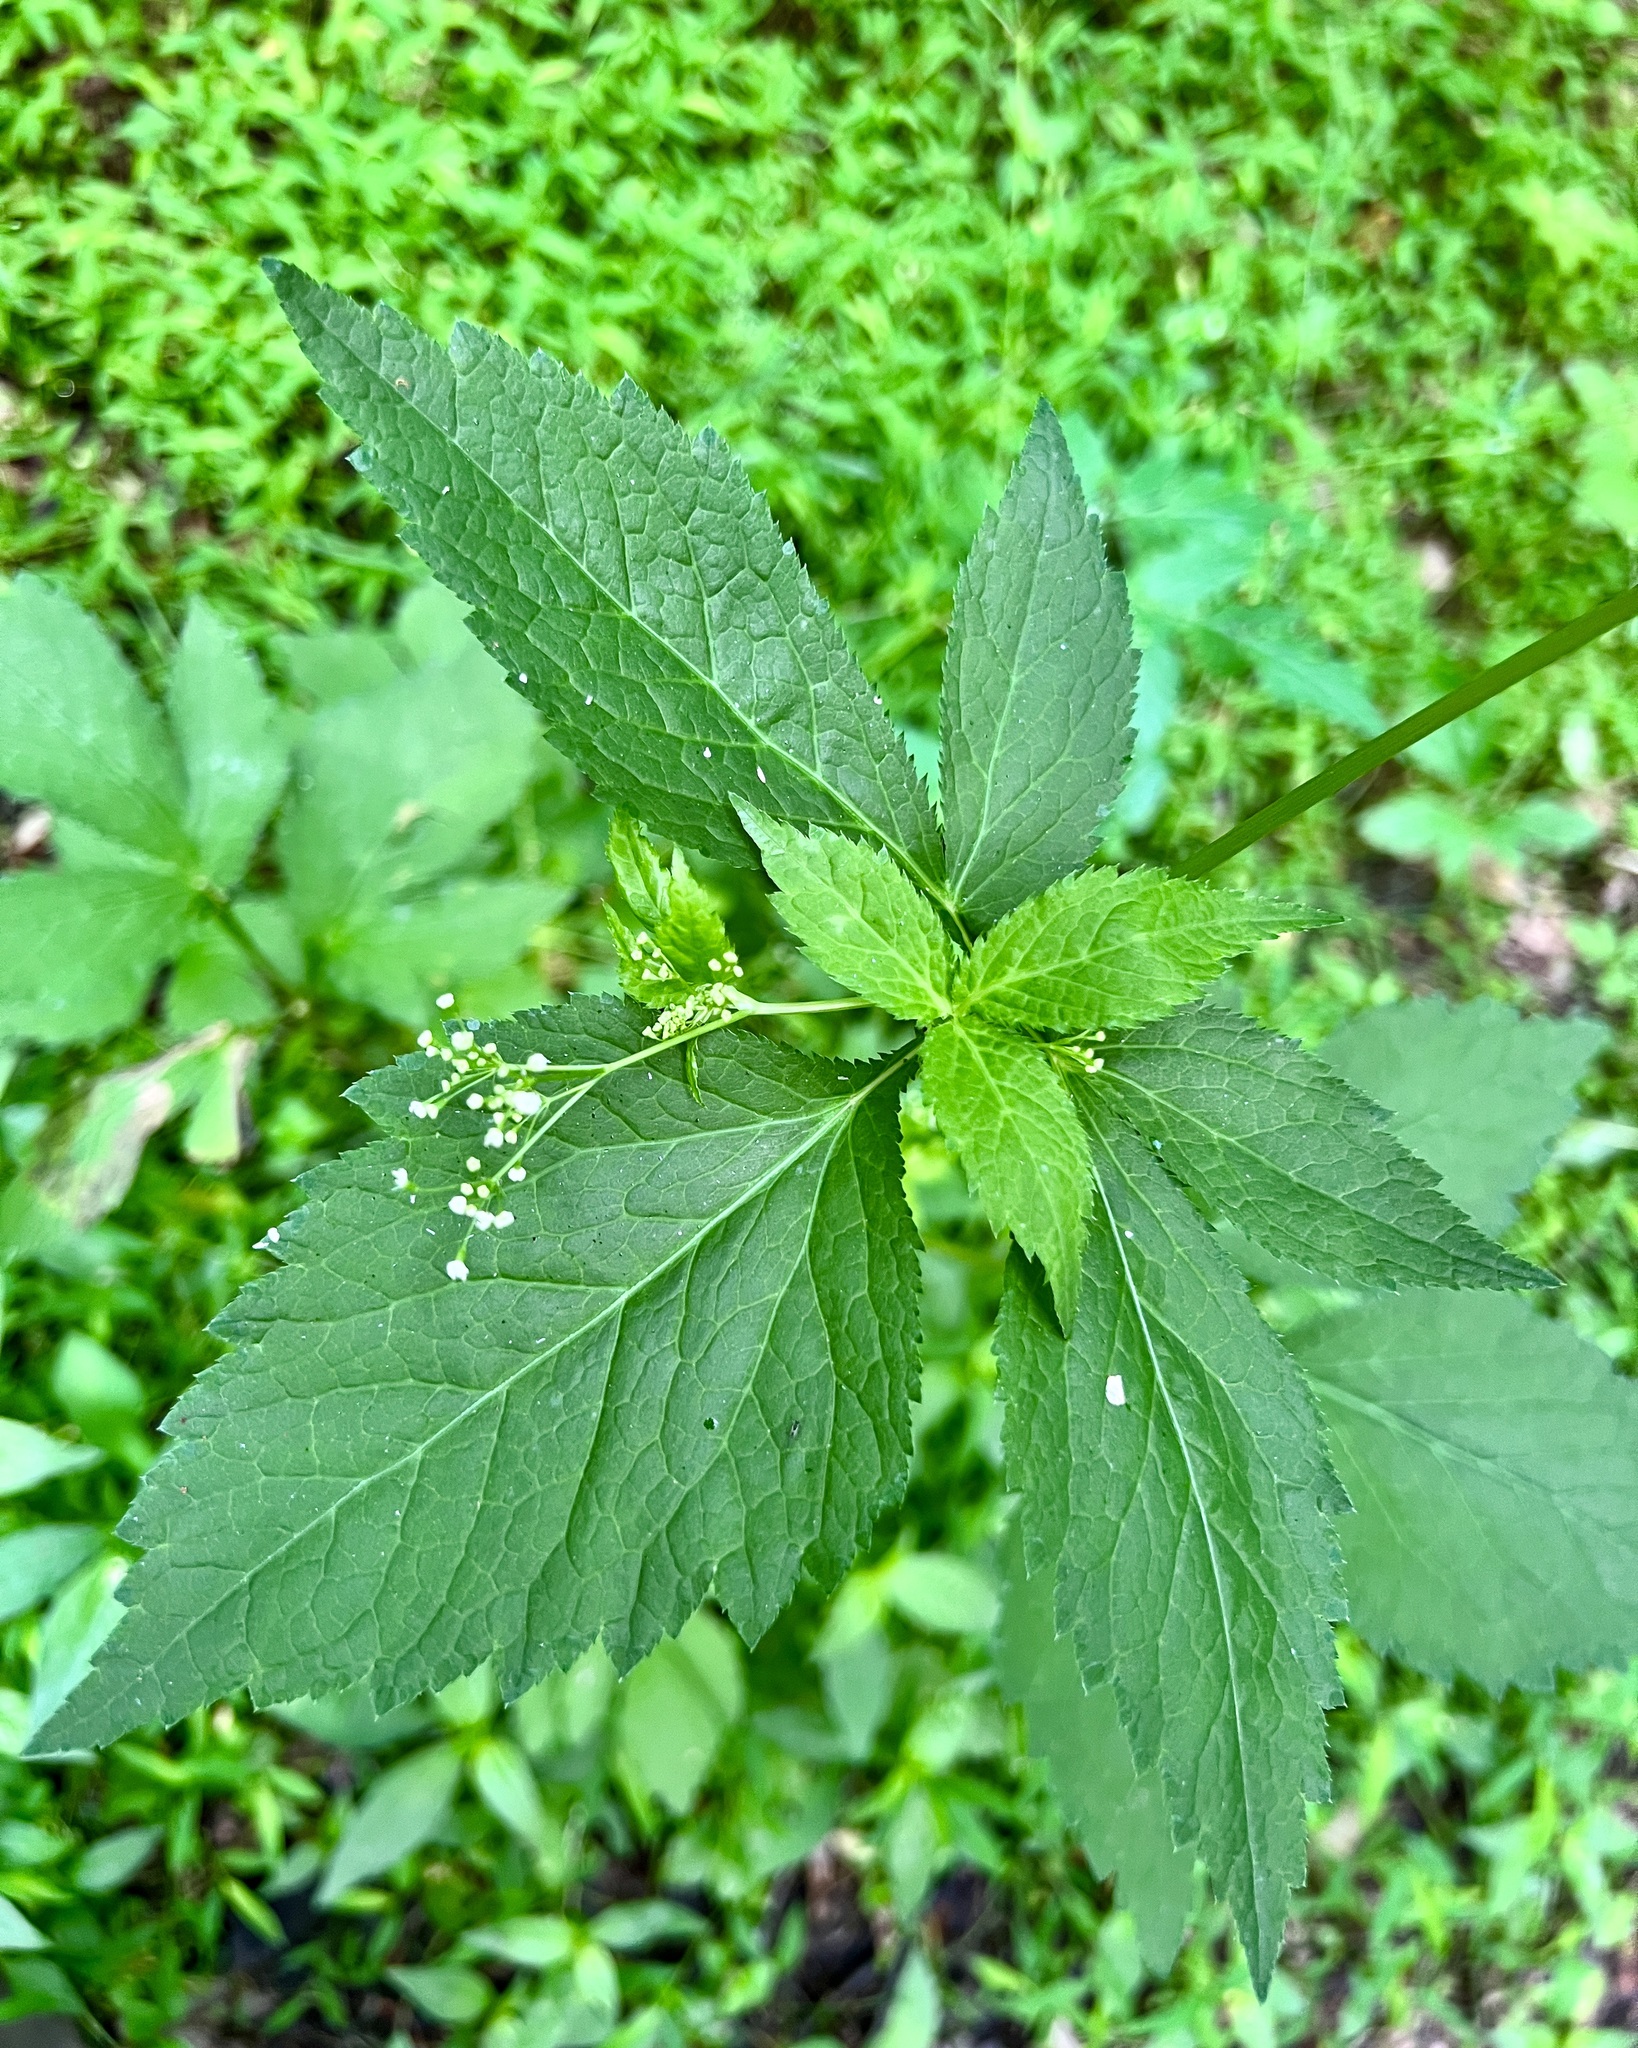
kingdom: Plantae
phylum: Tracheophyta
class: Magnoliopsida
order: Apiales
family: Apiaceae
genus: Cryptotaenia
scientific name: Cryptotaenia canadensis
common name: Honewort
